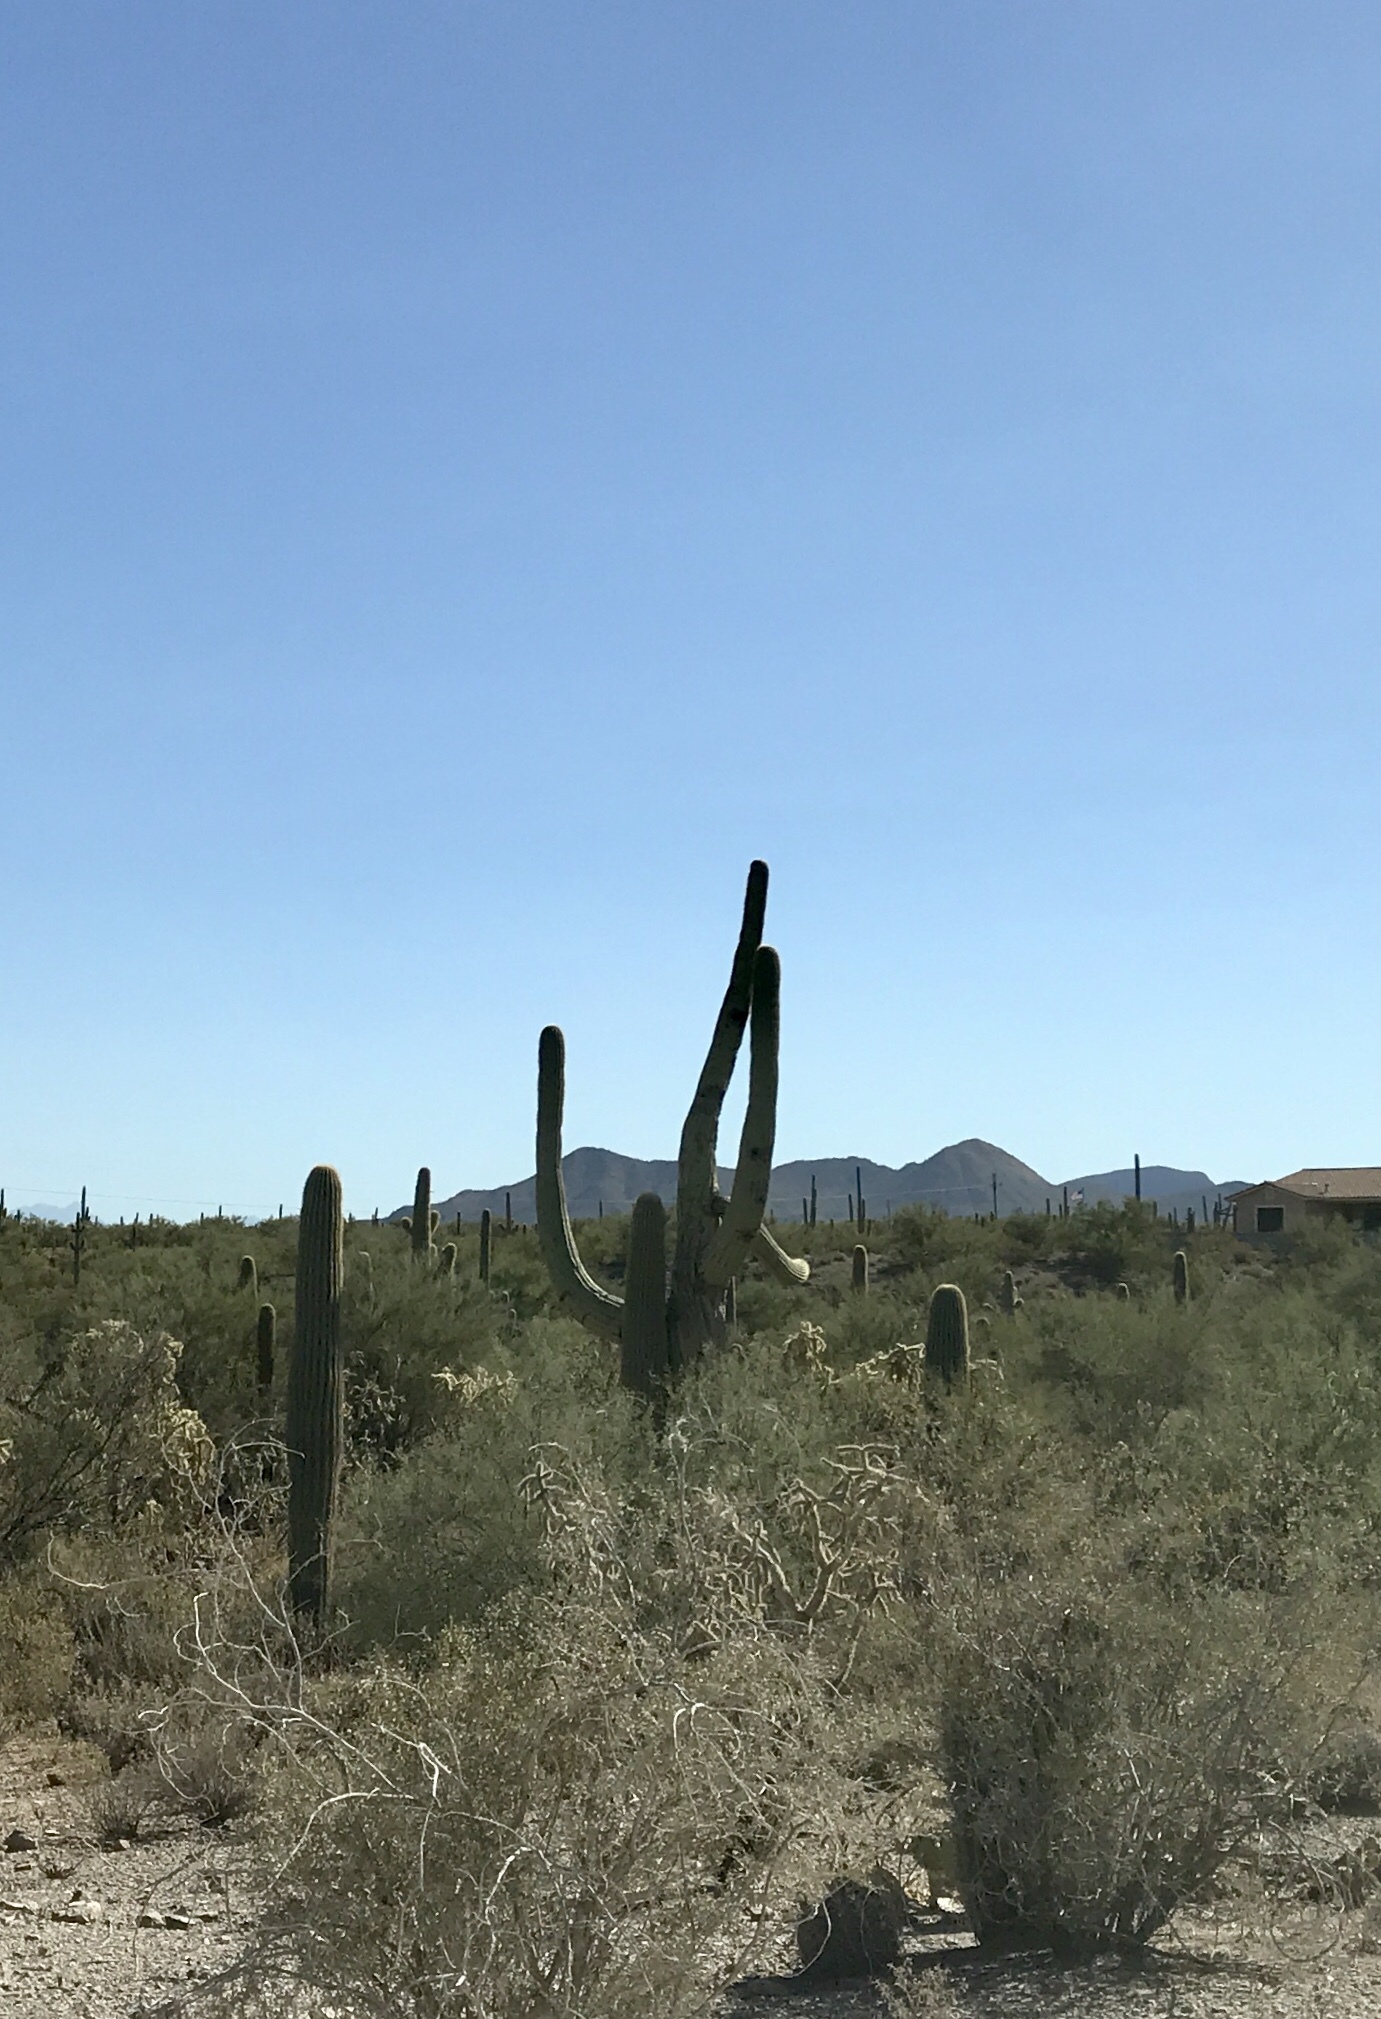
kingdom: Plantae
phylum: Tracheophyta
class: Magnoliopsida
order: Caryophyllales
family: Cactaceae
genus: Carnegiea
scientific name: Carnegiea gigantea
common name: Saguaro
